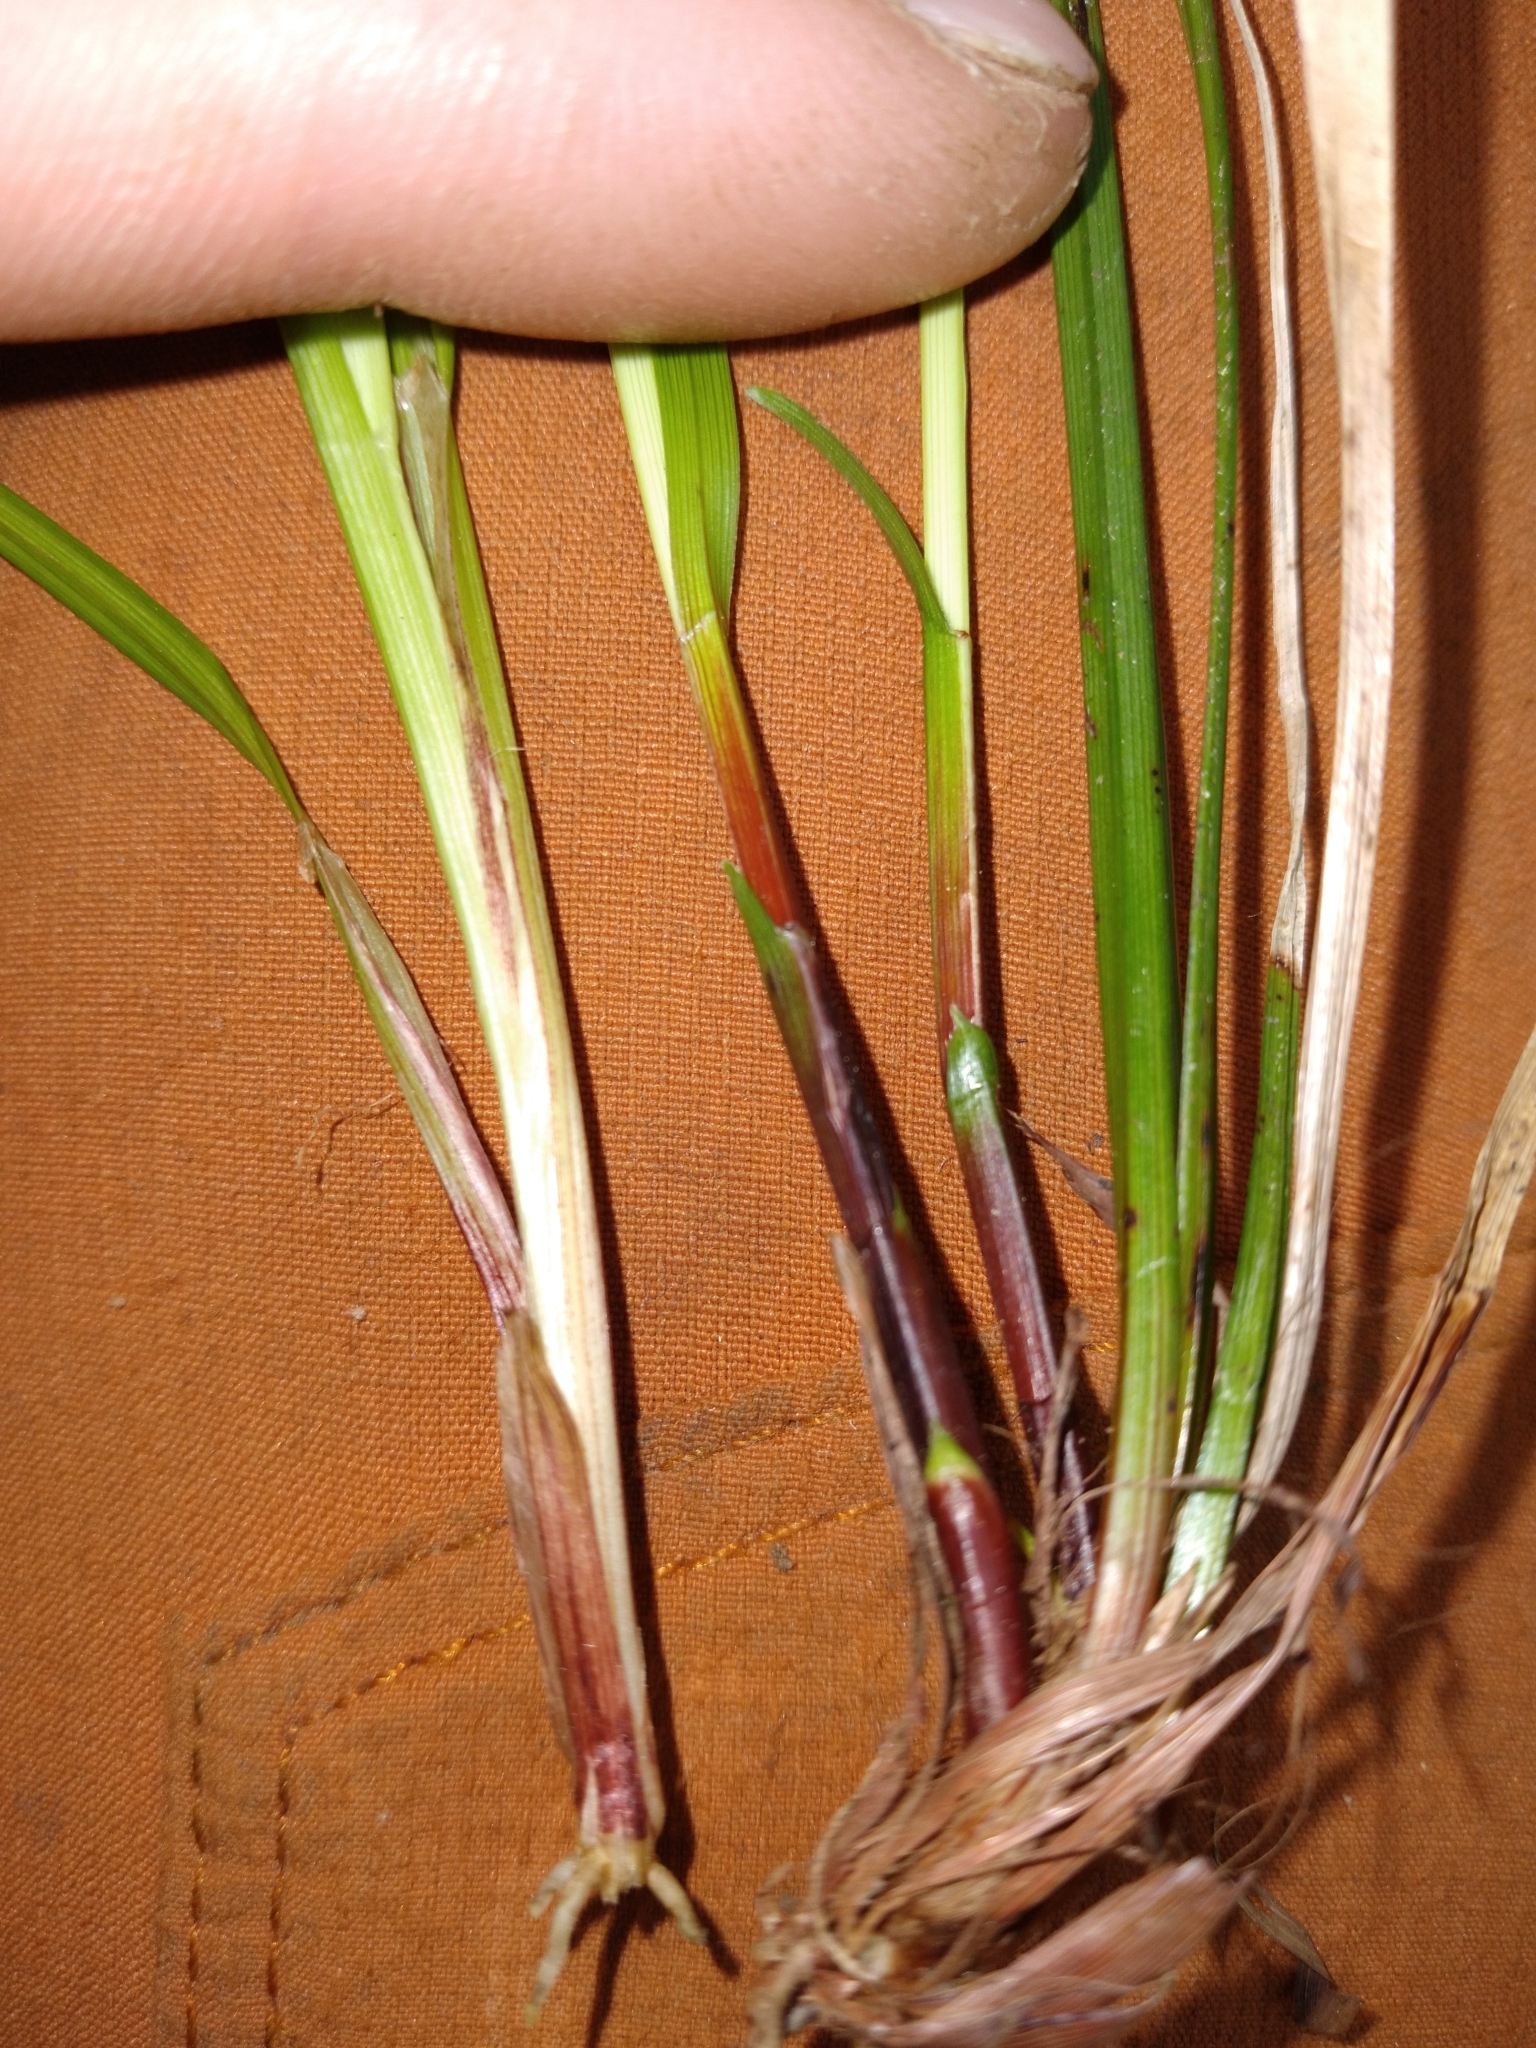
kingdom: Plantae
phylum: Tracheophyta
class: Liliopsida
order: Poales
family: Cyperaceae
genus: Carex
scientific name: Carex pedunculata
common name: Pedunculate sedge
